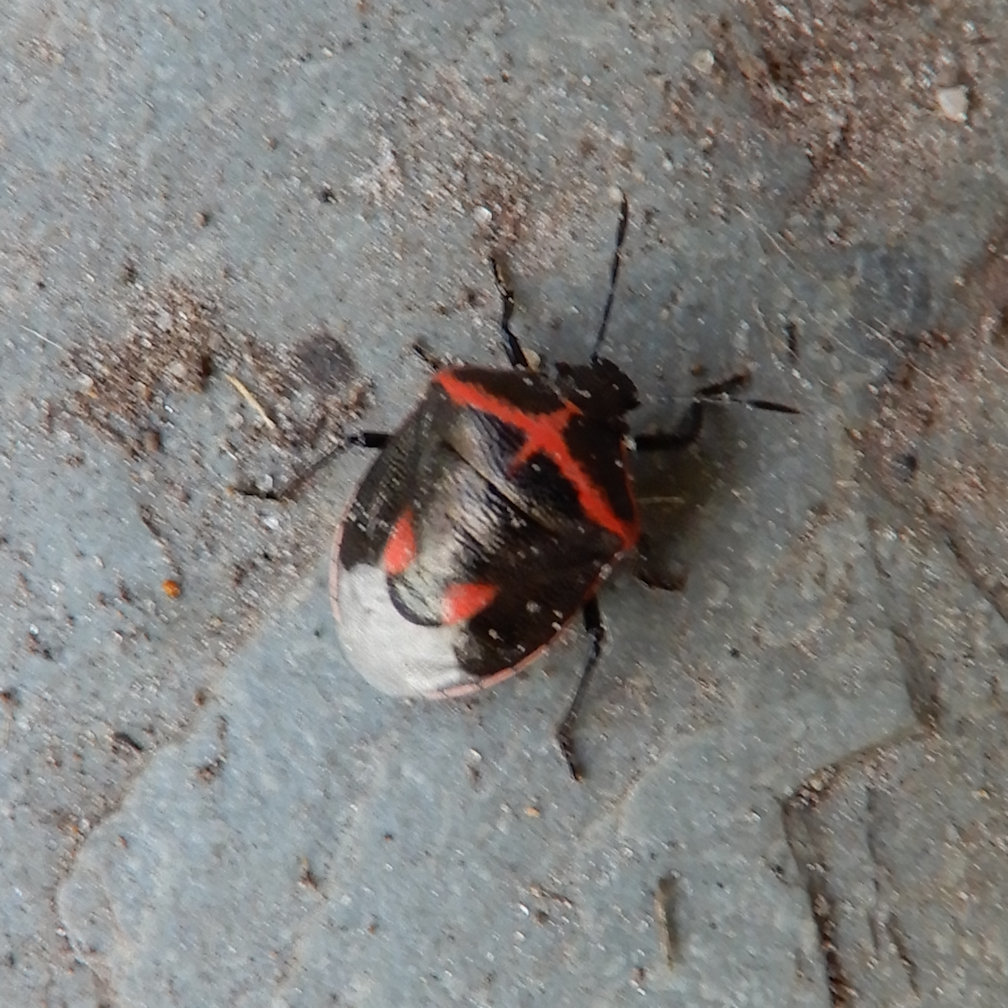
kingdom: Animalia
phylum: Arthropoda
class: Insecta
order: Hemiptera
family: Pentatomidae
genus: Cosmopepla
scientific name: Cosmopepla lintneriana
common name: Twice-stabbed stink bug
